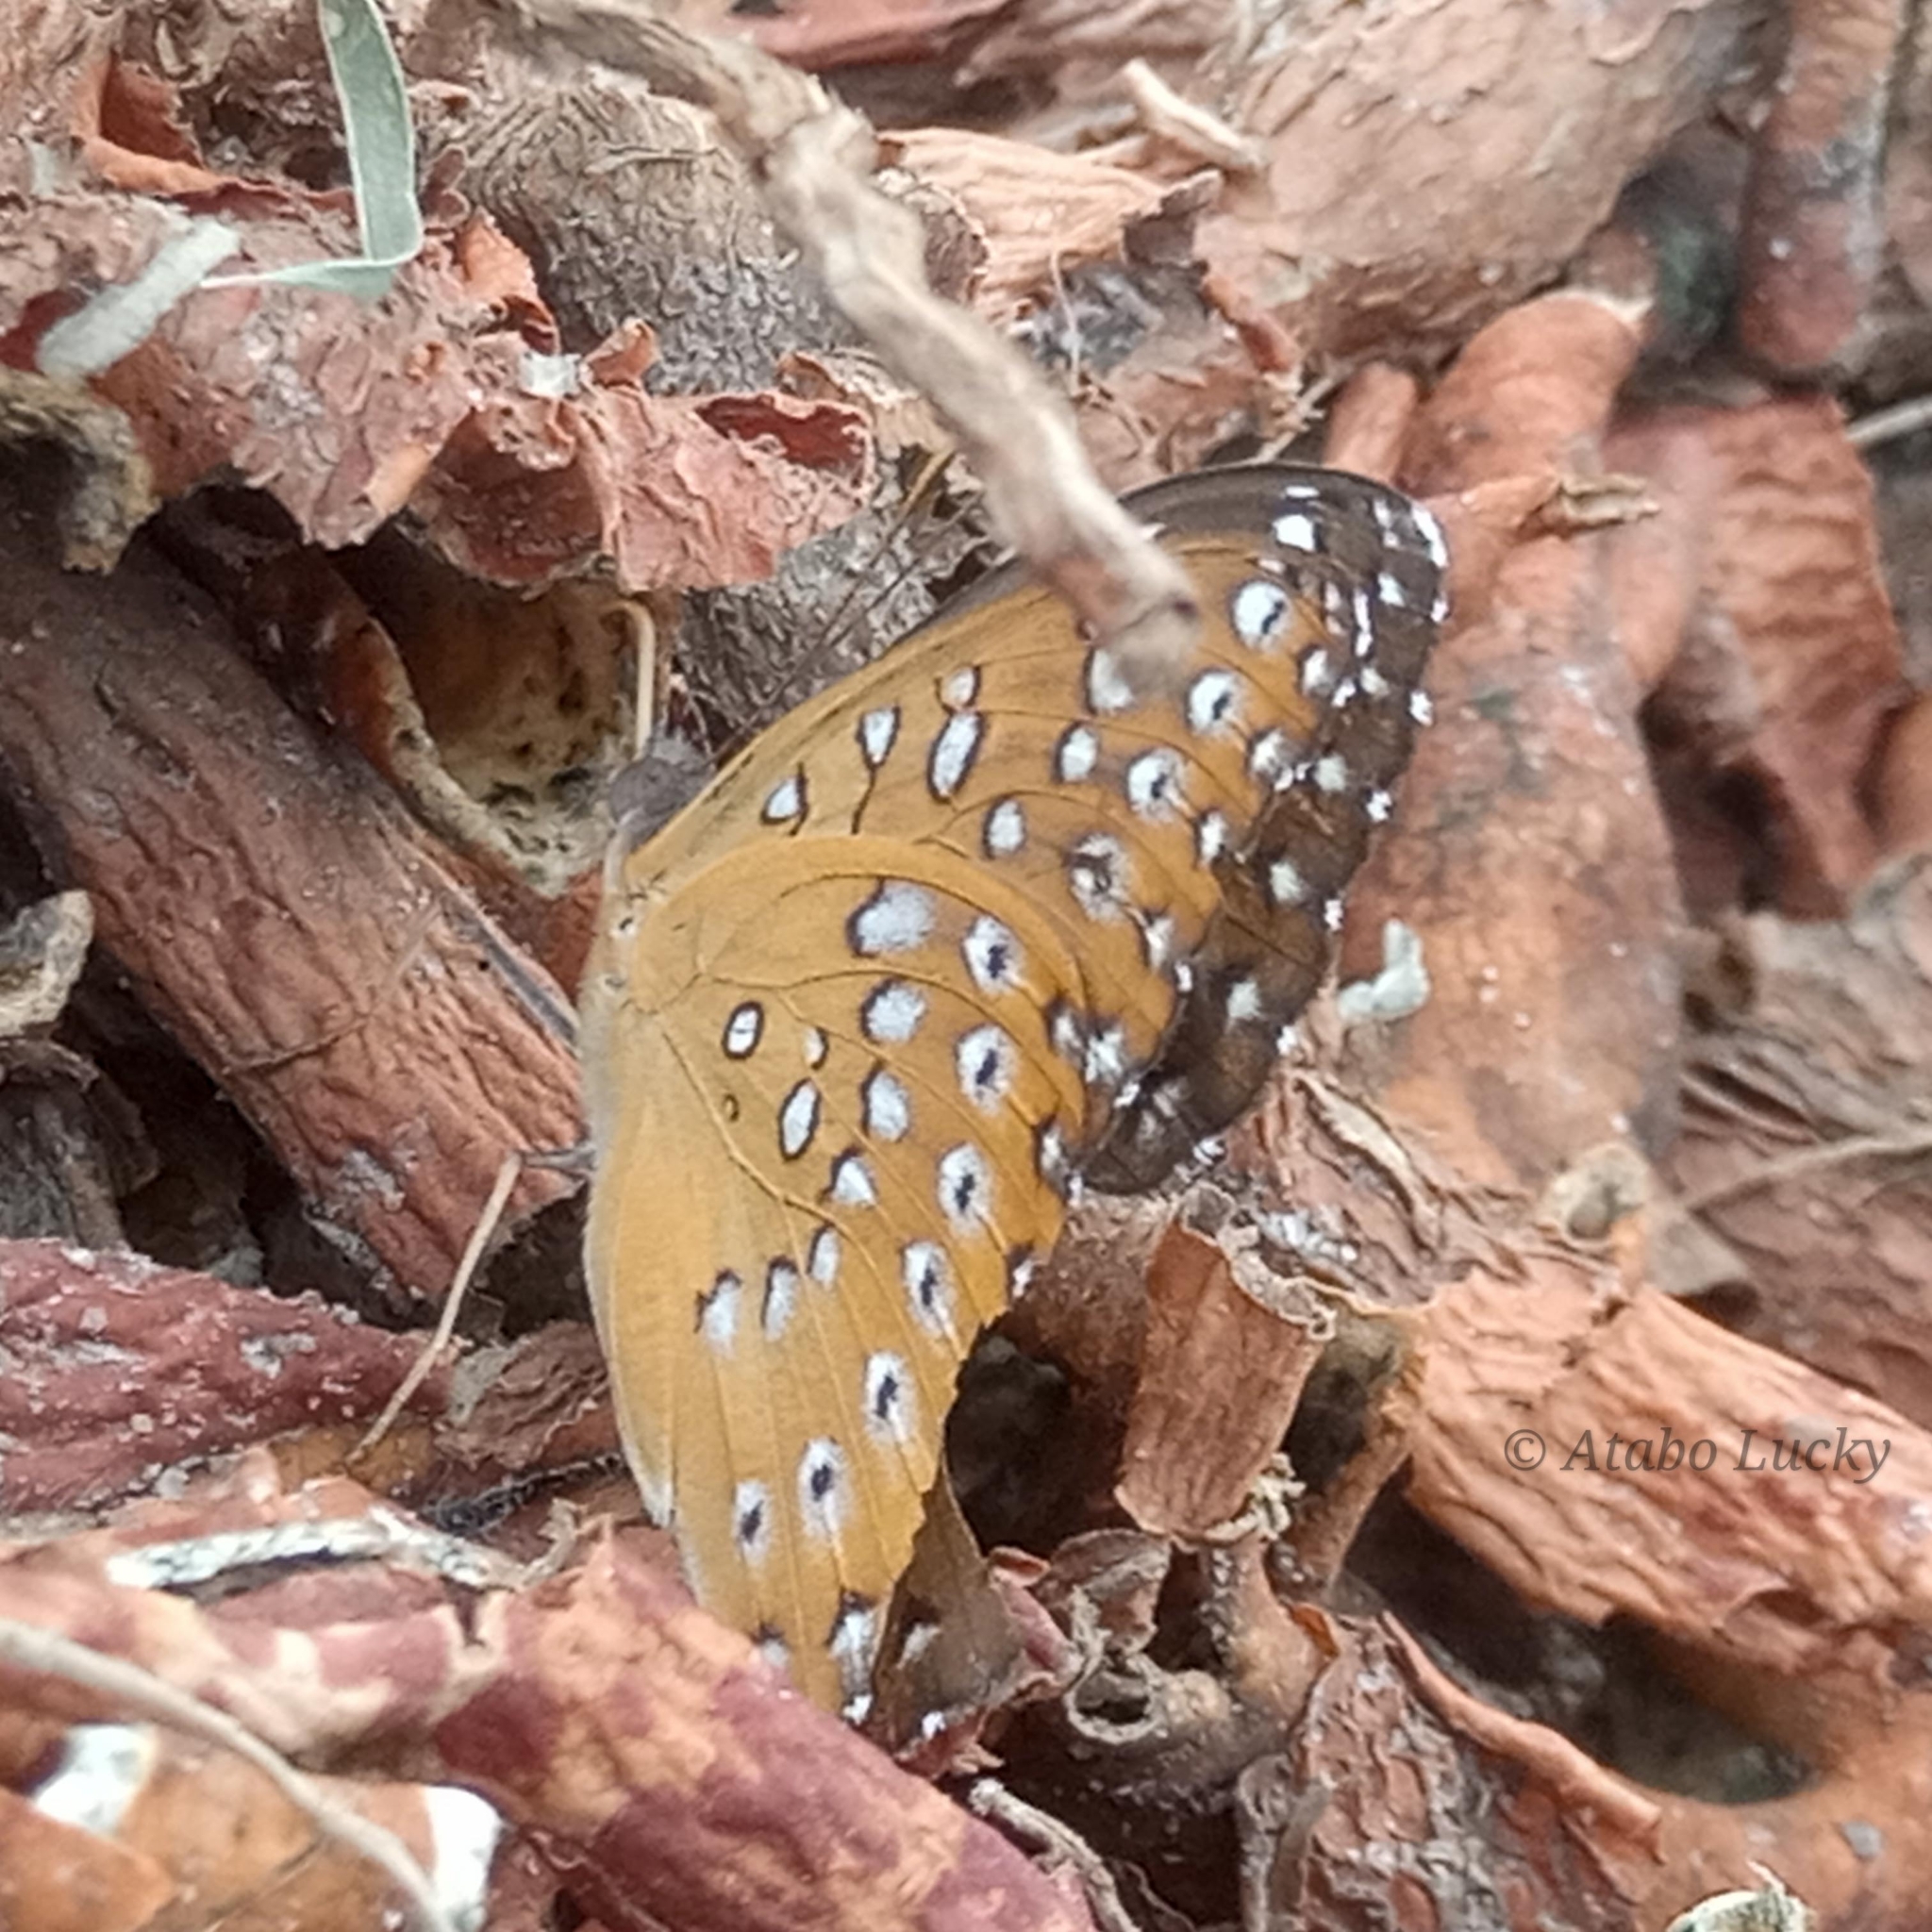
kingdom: Animalia
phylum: Arthropoda
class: Insecta
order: Lepidoptera
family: Nymphalidae
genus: Hamanumida
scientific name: Hamanumida daedalus
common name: Guinea-fowl butterfly
